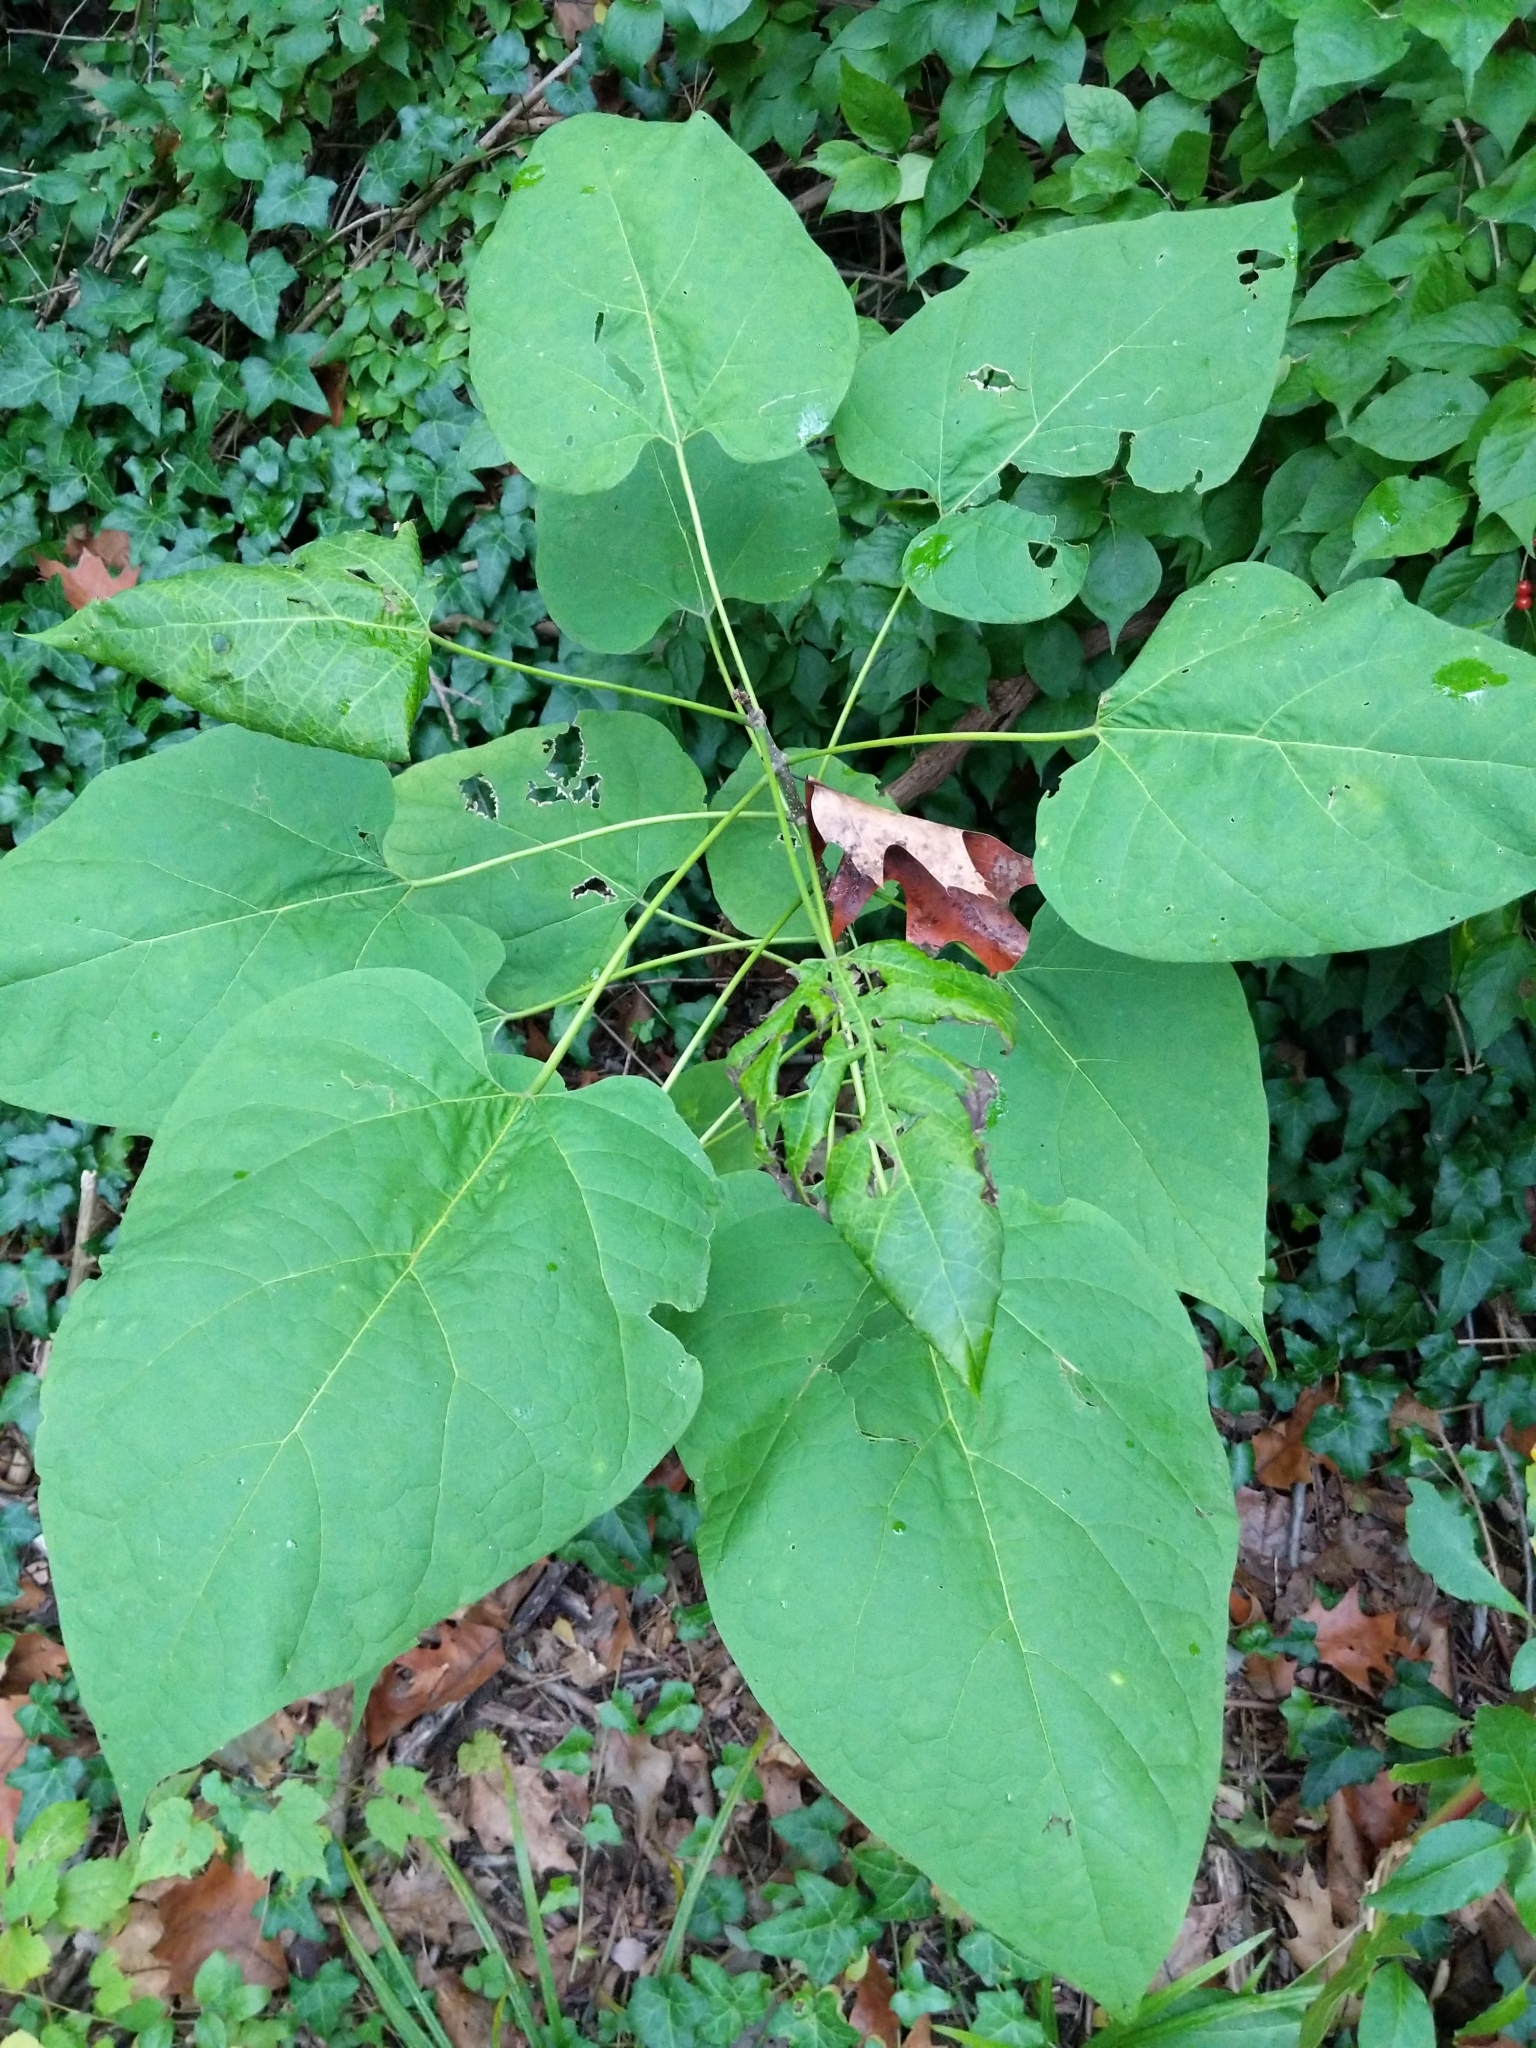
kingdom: Plantae
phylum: Tracheophyta
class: Magnoliopsida
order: Lamiales
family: Bignoniaceae
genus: Catalpa
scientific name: Catalpa speciosa
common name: Northern catalpa
